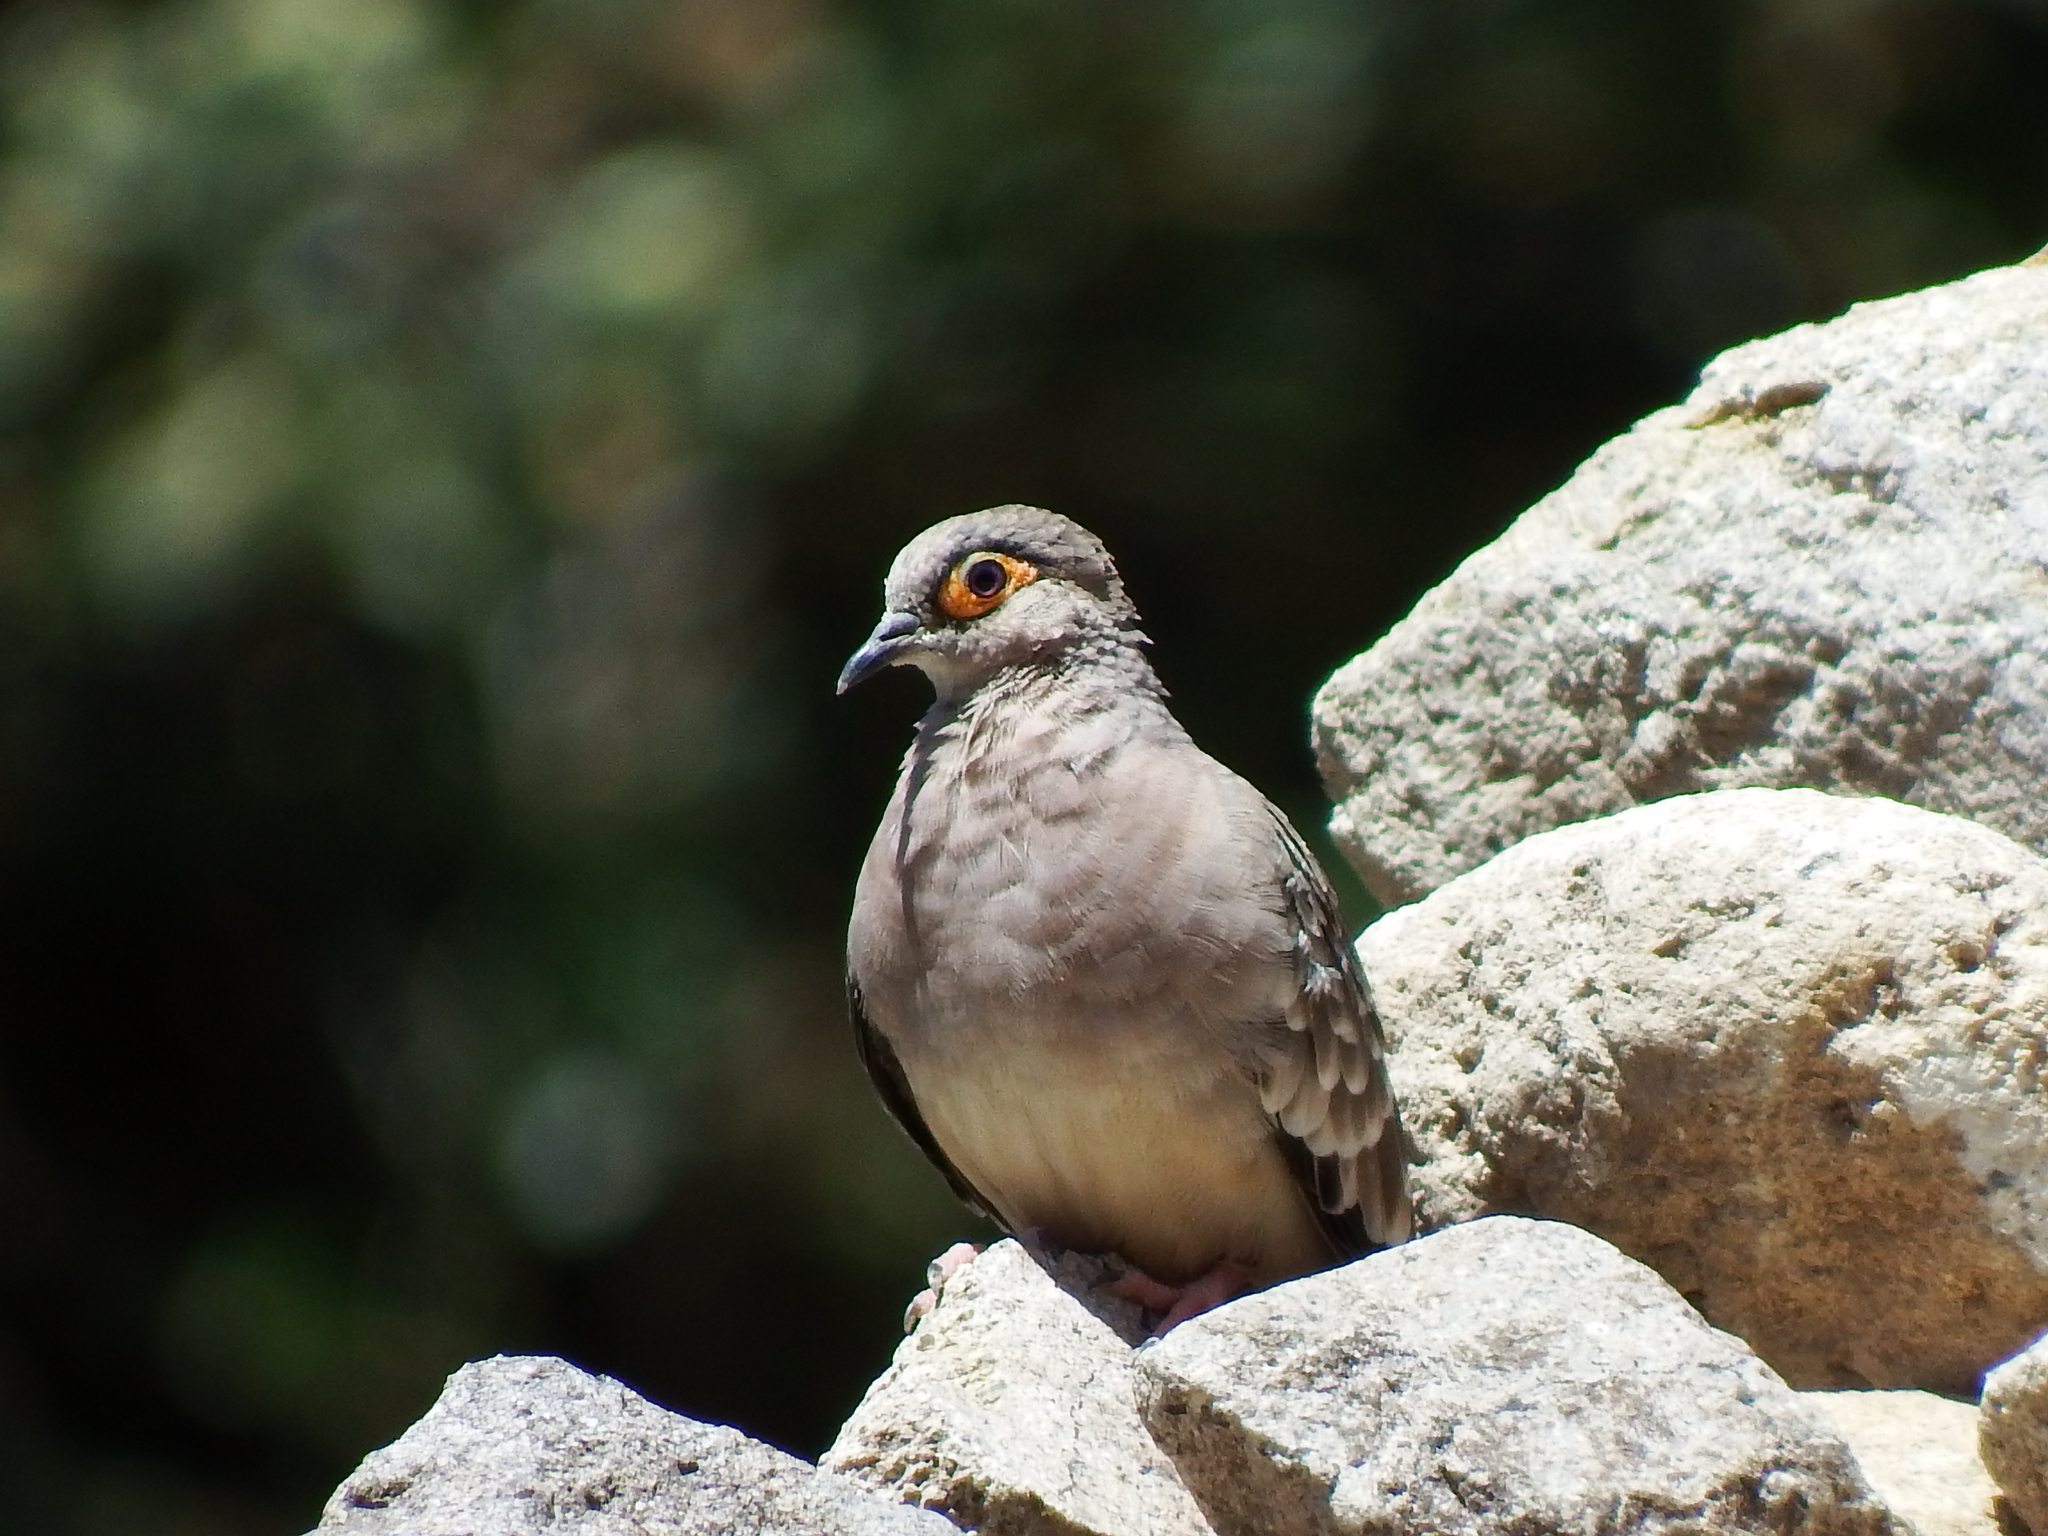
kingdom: Animalia
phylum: Chordata
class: Aves
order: Columbiformes
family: Columbidae
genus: Metriopelia
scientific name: Metriopelia ceciliae
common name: Bare-faced ground dove
